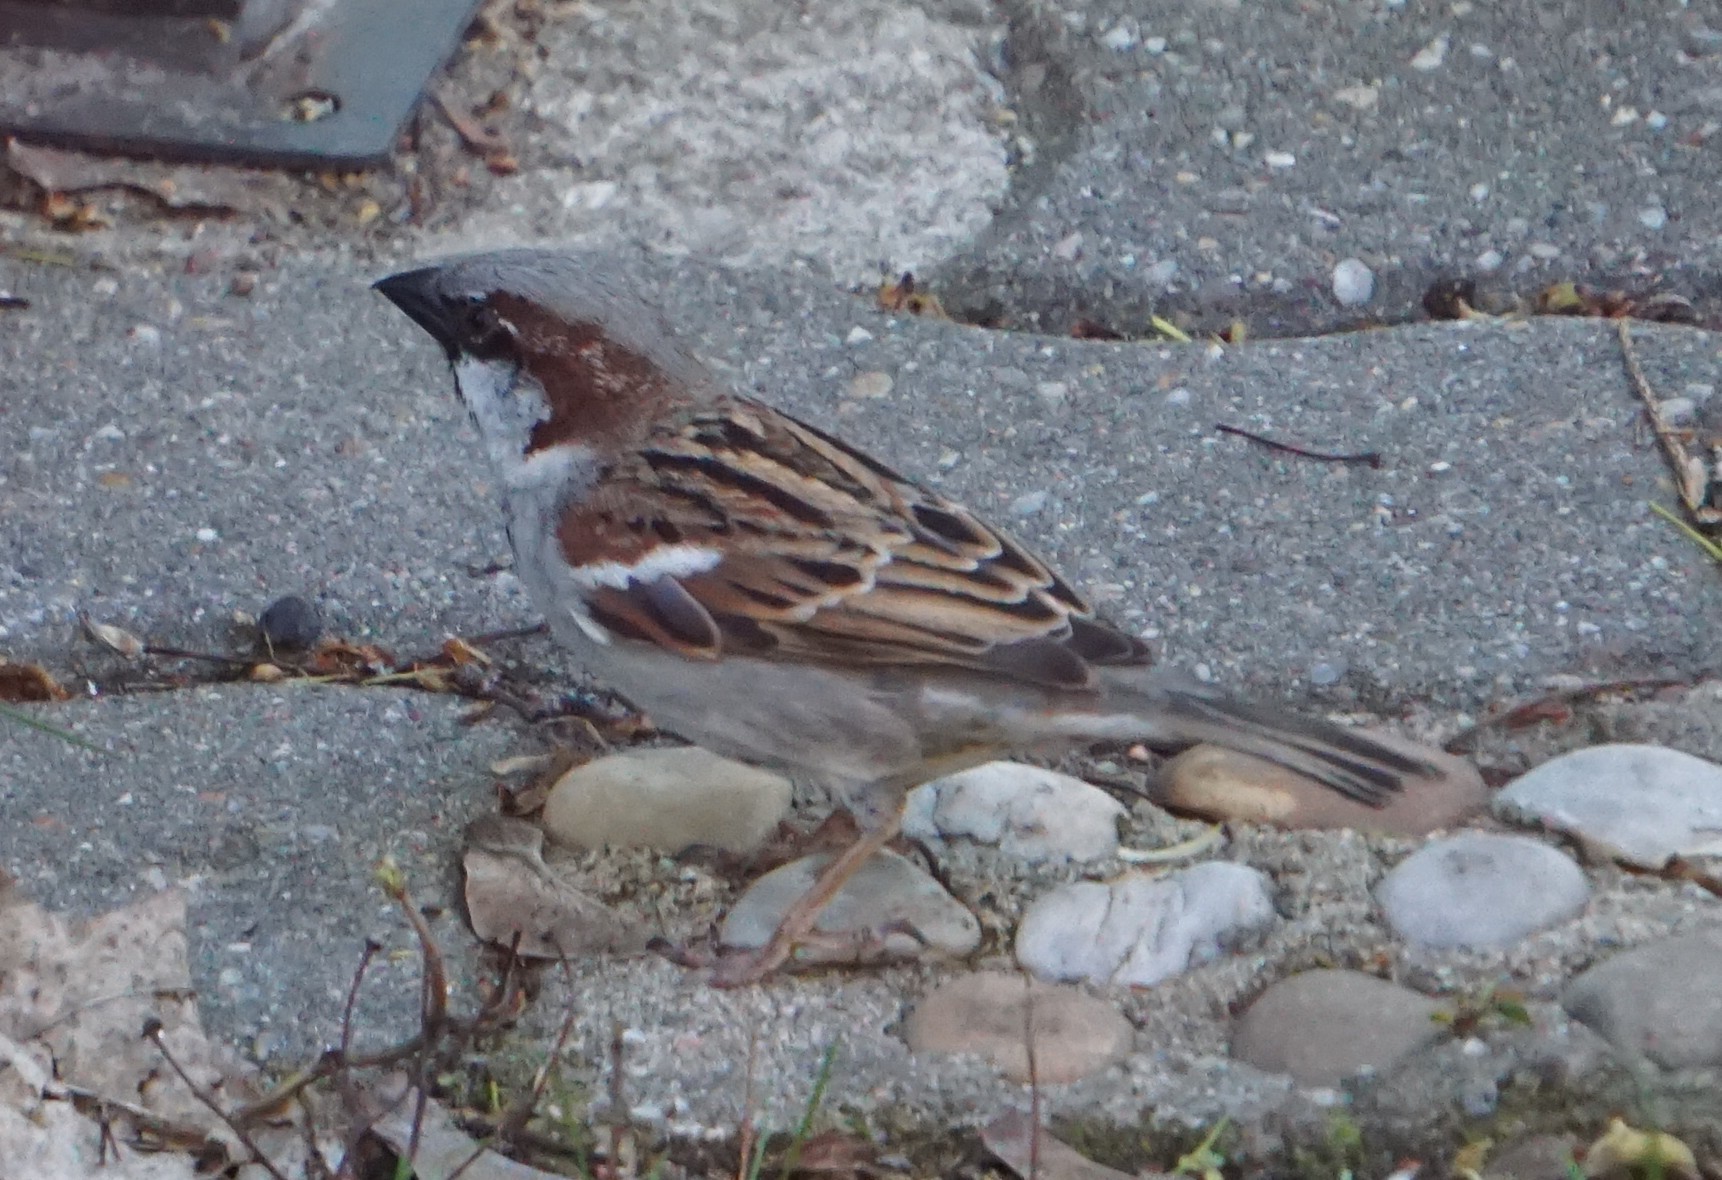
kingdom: Animalia
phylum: Chordata
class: Aves
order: Passeriformes
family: Passeridae
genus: Passer
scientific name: Passer domesticus
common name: House sparrow
